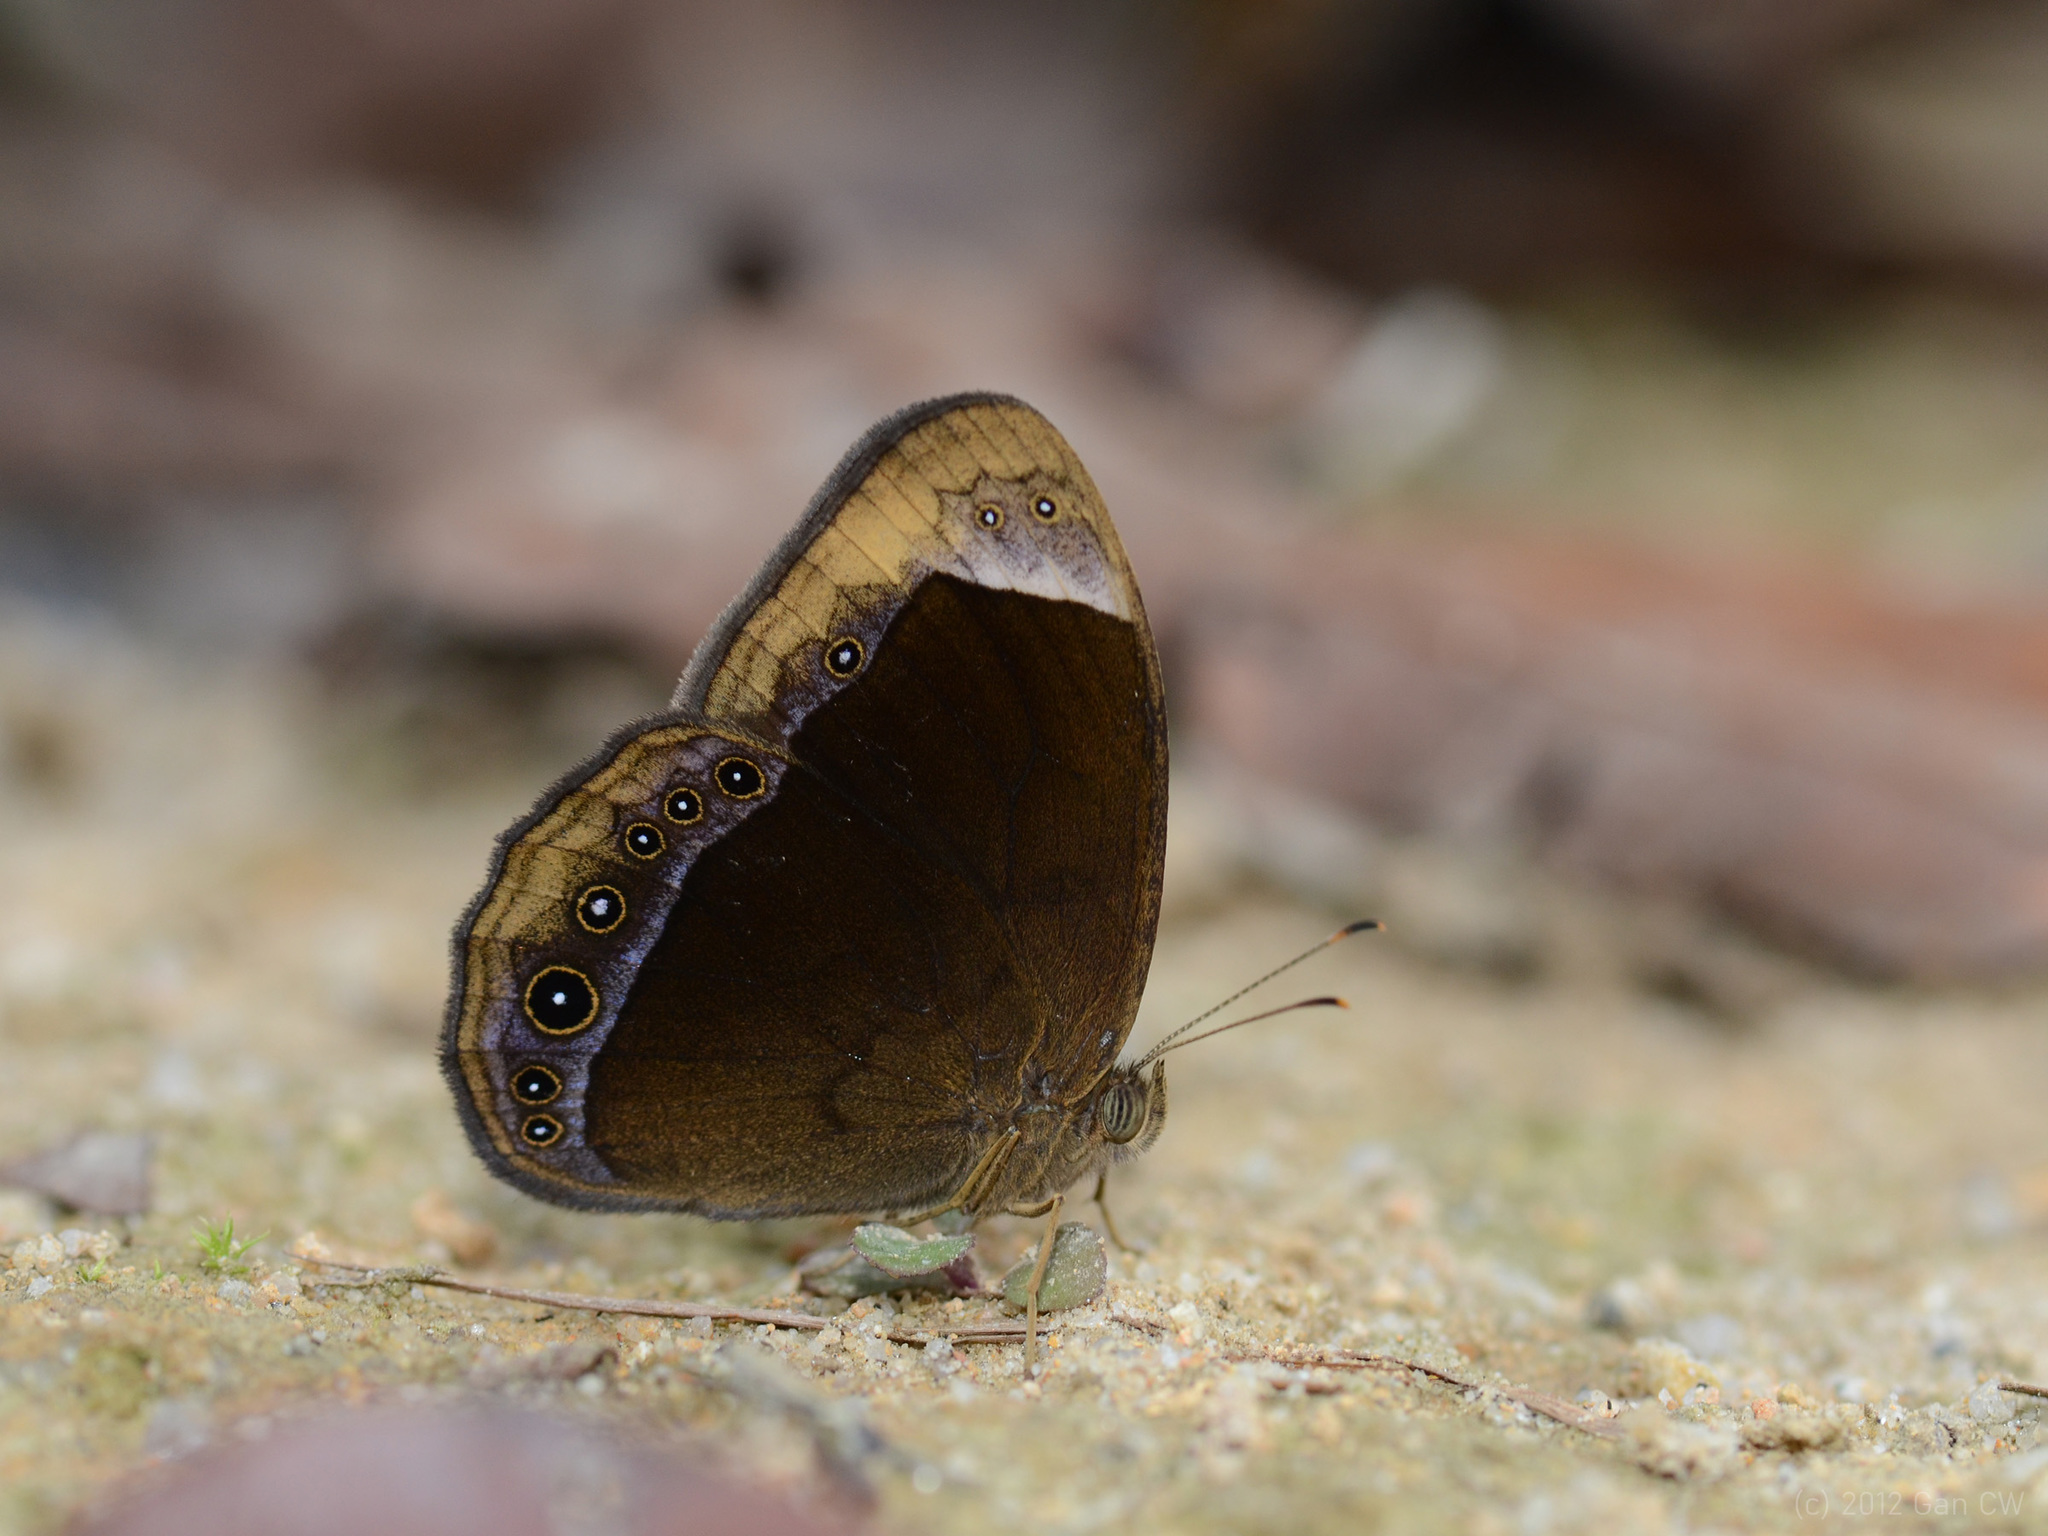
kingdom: Animalia
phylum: Arthropoda
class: Insecta
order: Lepidoptera
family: Nymphalidae
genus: Mycalesis
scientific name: Mycalesis anaxias
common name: White-bar bushbrown
